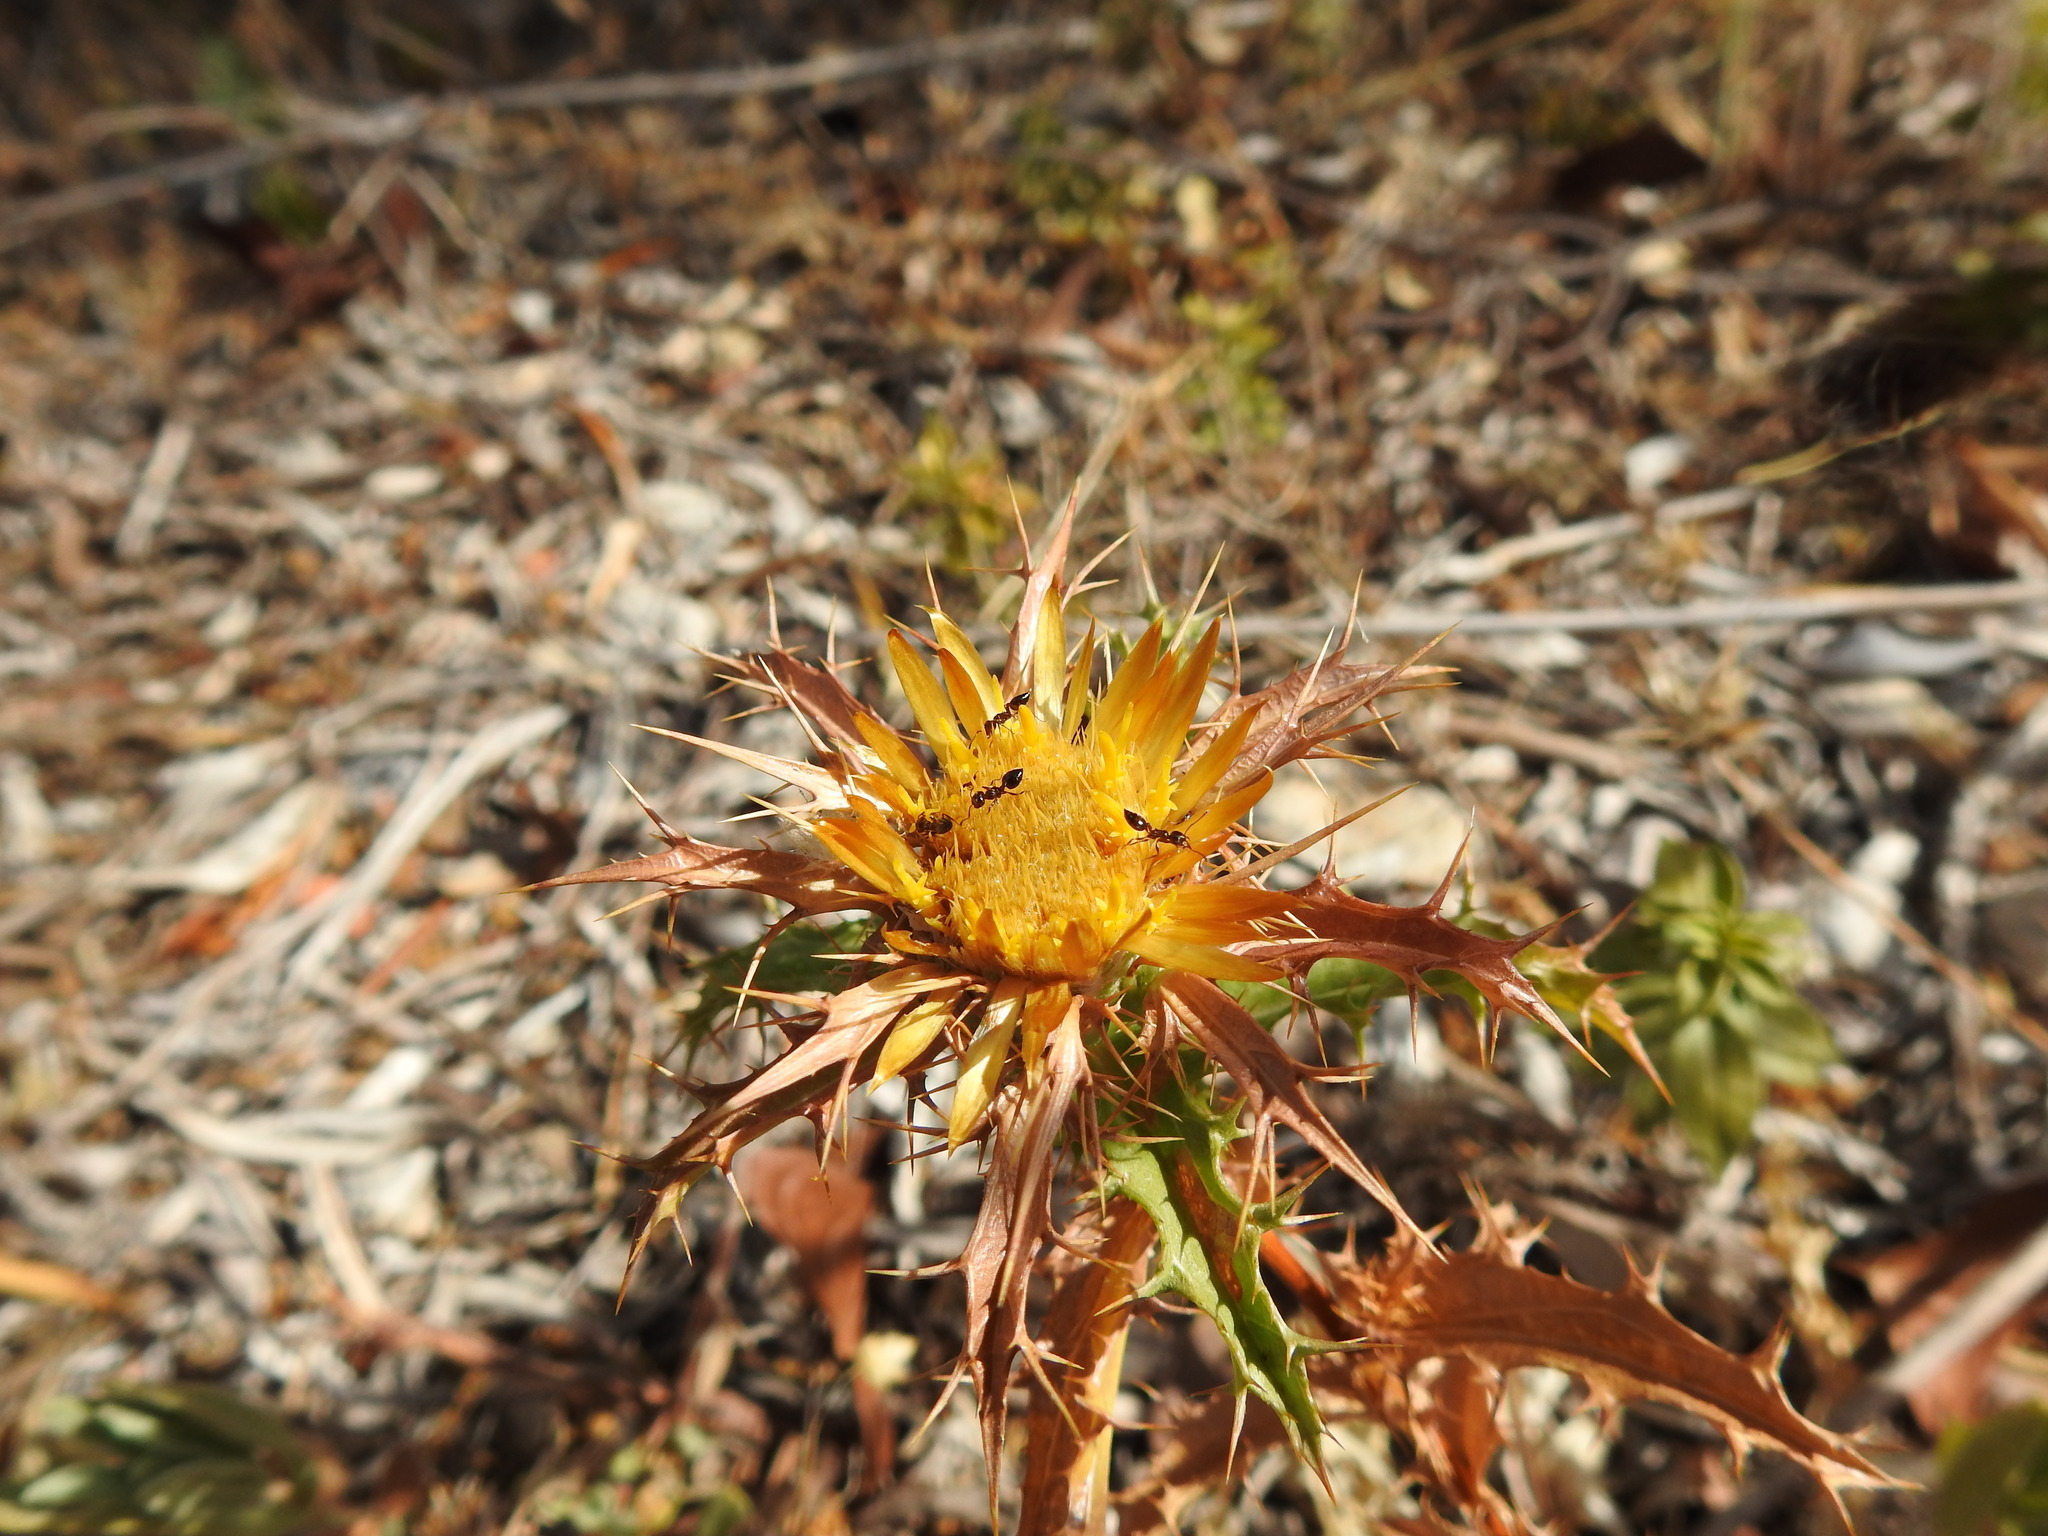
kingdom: Plantae
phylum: Tracheophyta
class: Magnoliopsida
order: Asterales
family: Asteraceae
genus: Carlina
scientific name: Carlina hispanica
